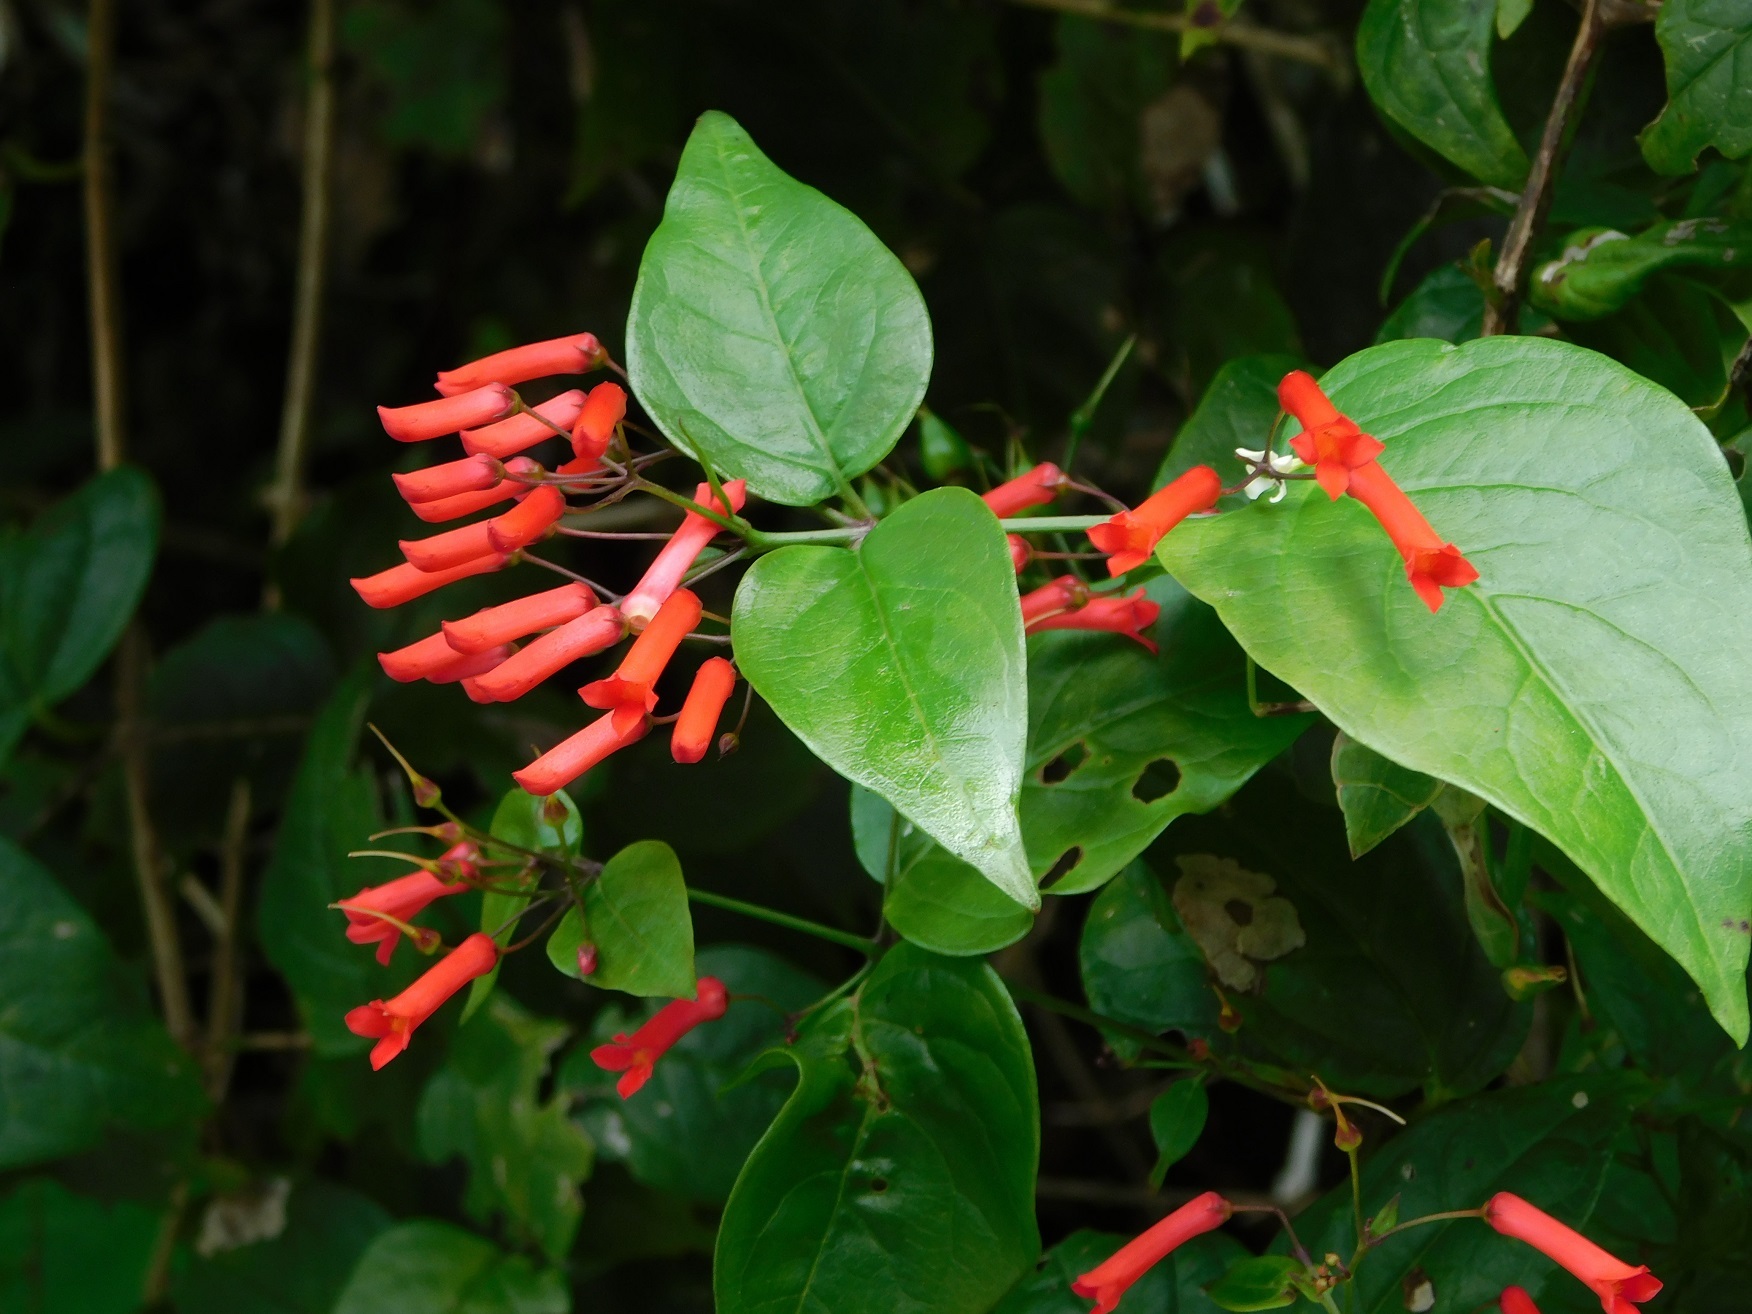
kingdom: Plantae
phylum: Tracheophyta
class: Magnoliopsida
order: Lamiales
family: Plantaginaceae
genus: Russelia
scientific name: Russelia contrerasii
